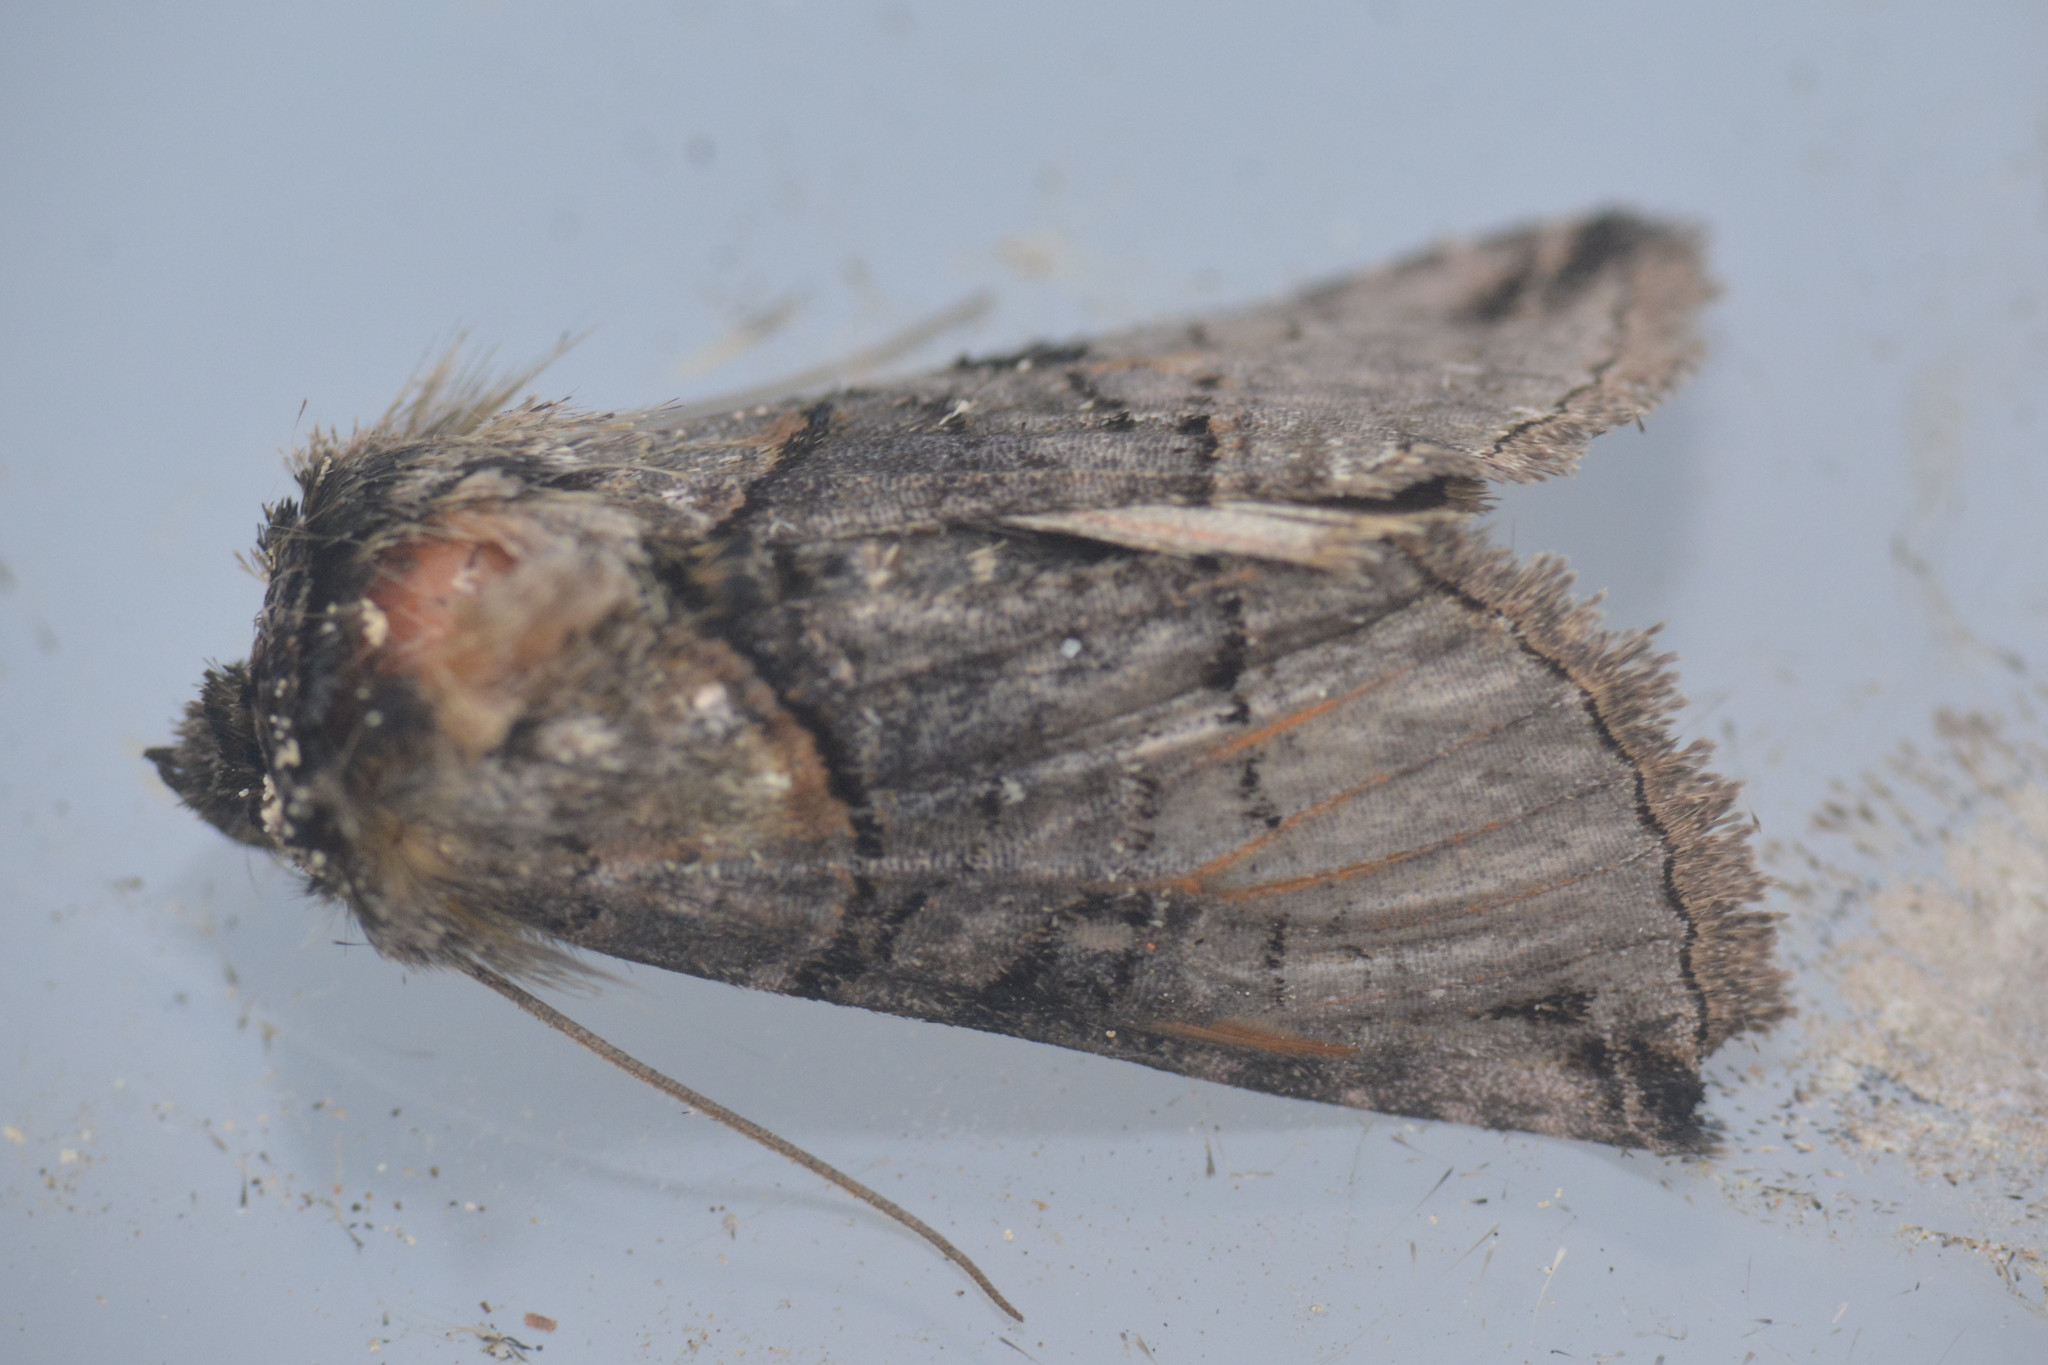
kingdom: Animalia
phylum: Arthropoda
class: Insecta
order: Lepidoptera
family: Noctuidae
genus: Abrostola
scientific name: Abrostola tripartita
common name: Spectacle
